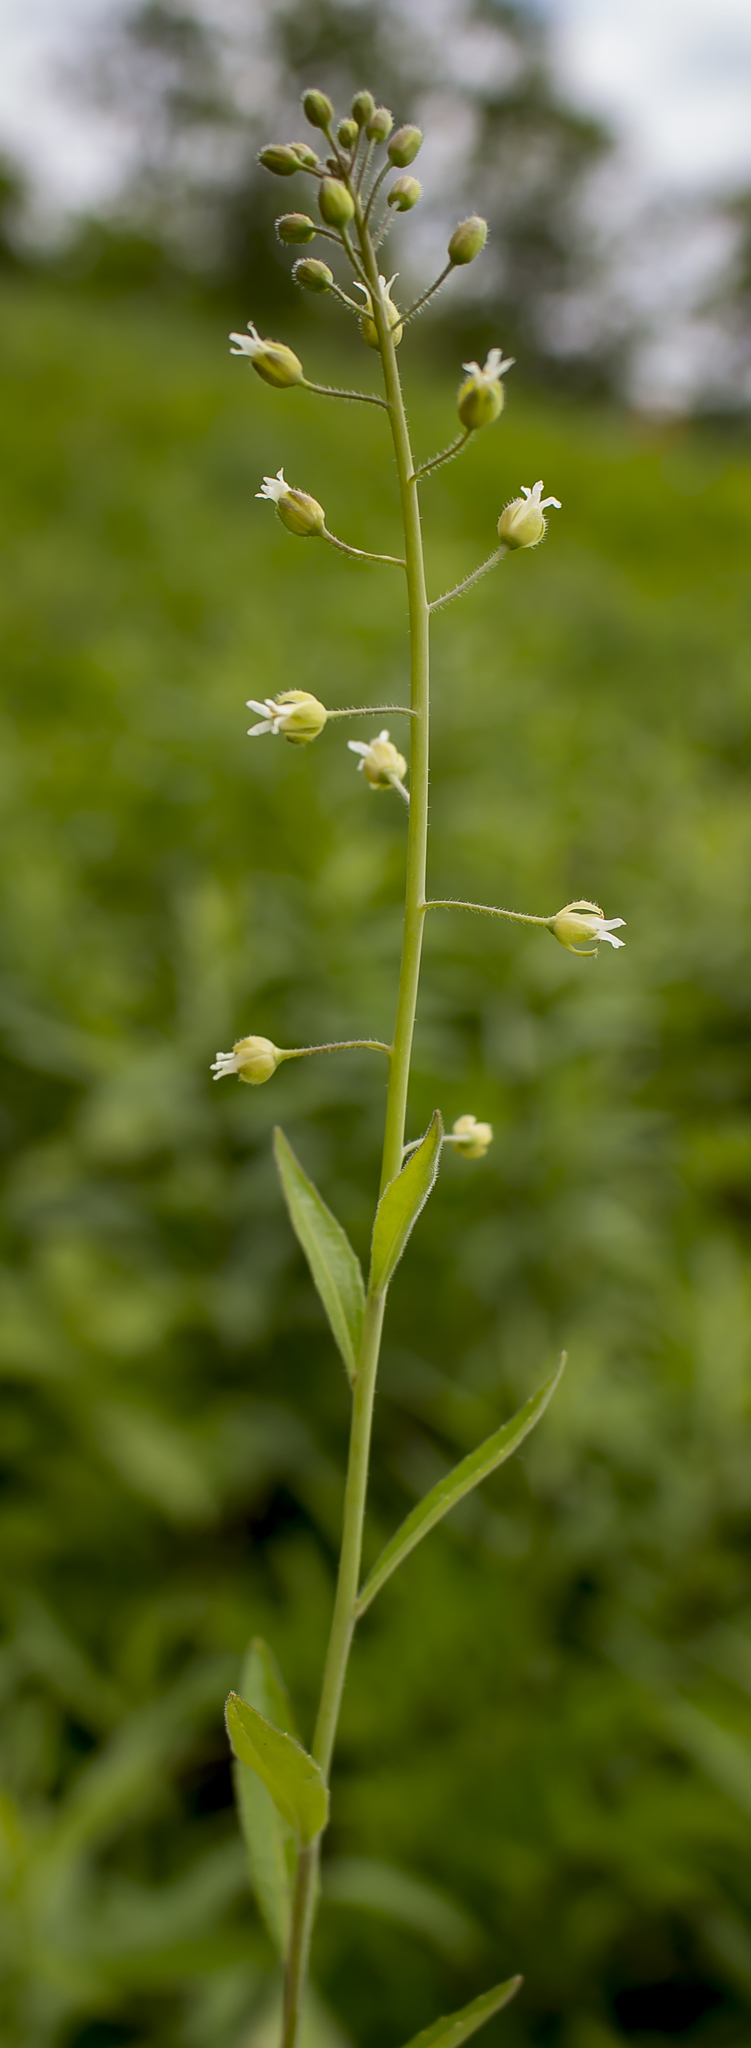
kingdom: Plantae
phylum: Tracheophyta
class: Magnoliopsida
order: Brassicales
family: Brassicaceae
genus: Borodinia
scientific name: Borodinia canadensis
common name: Sicklepod
